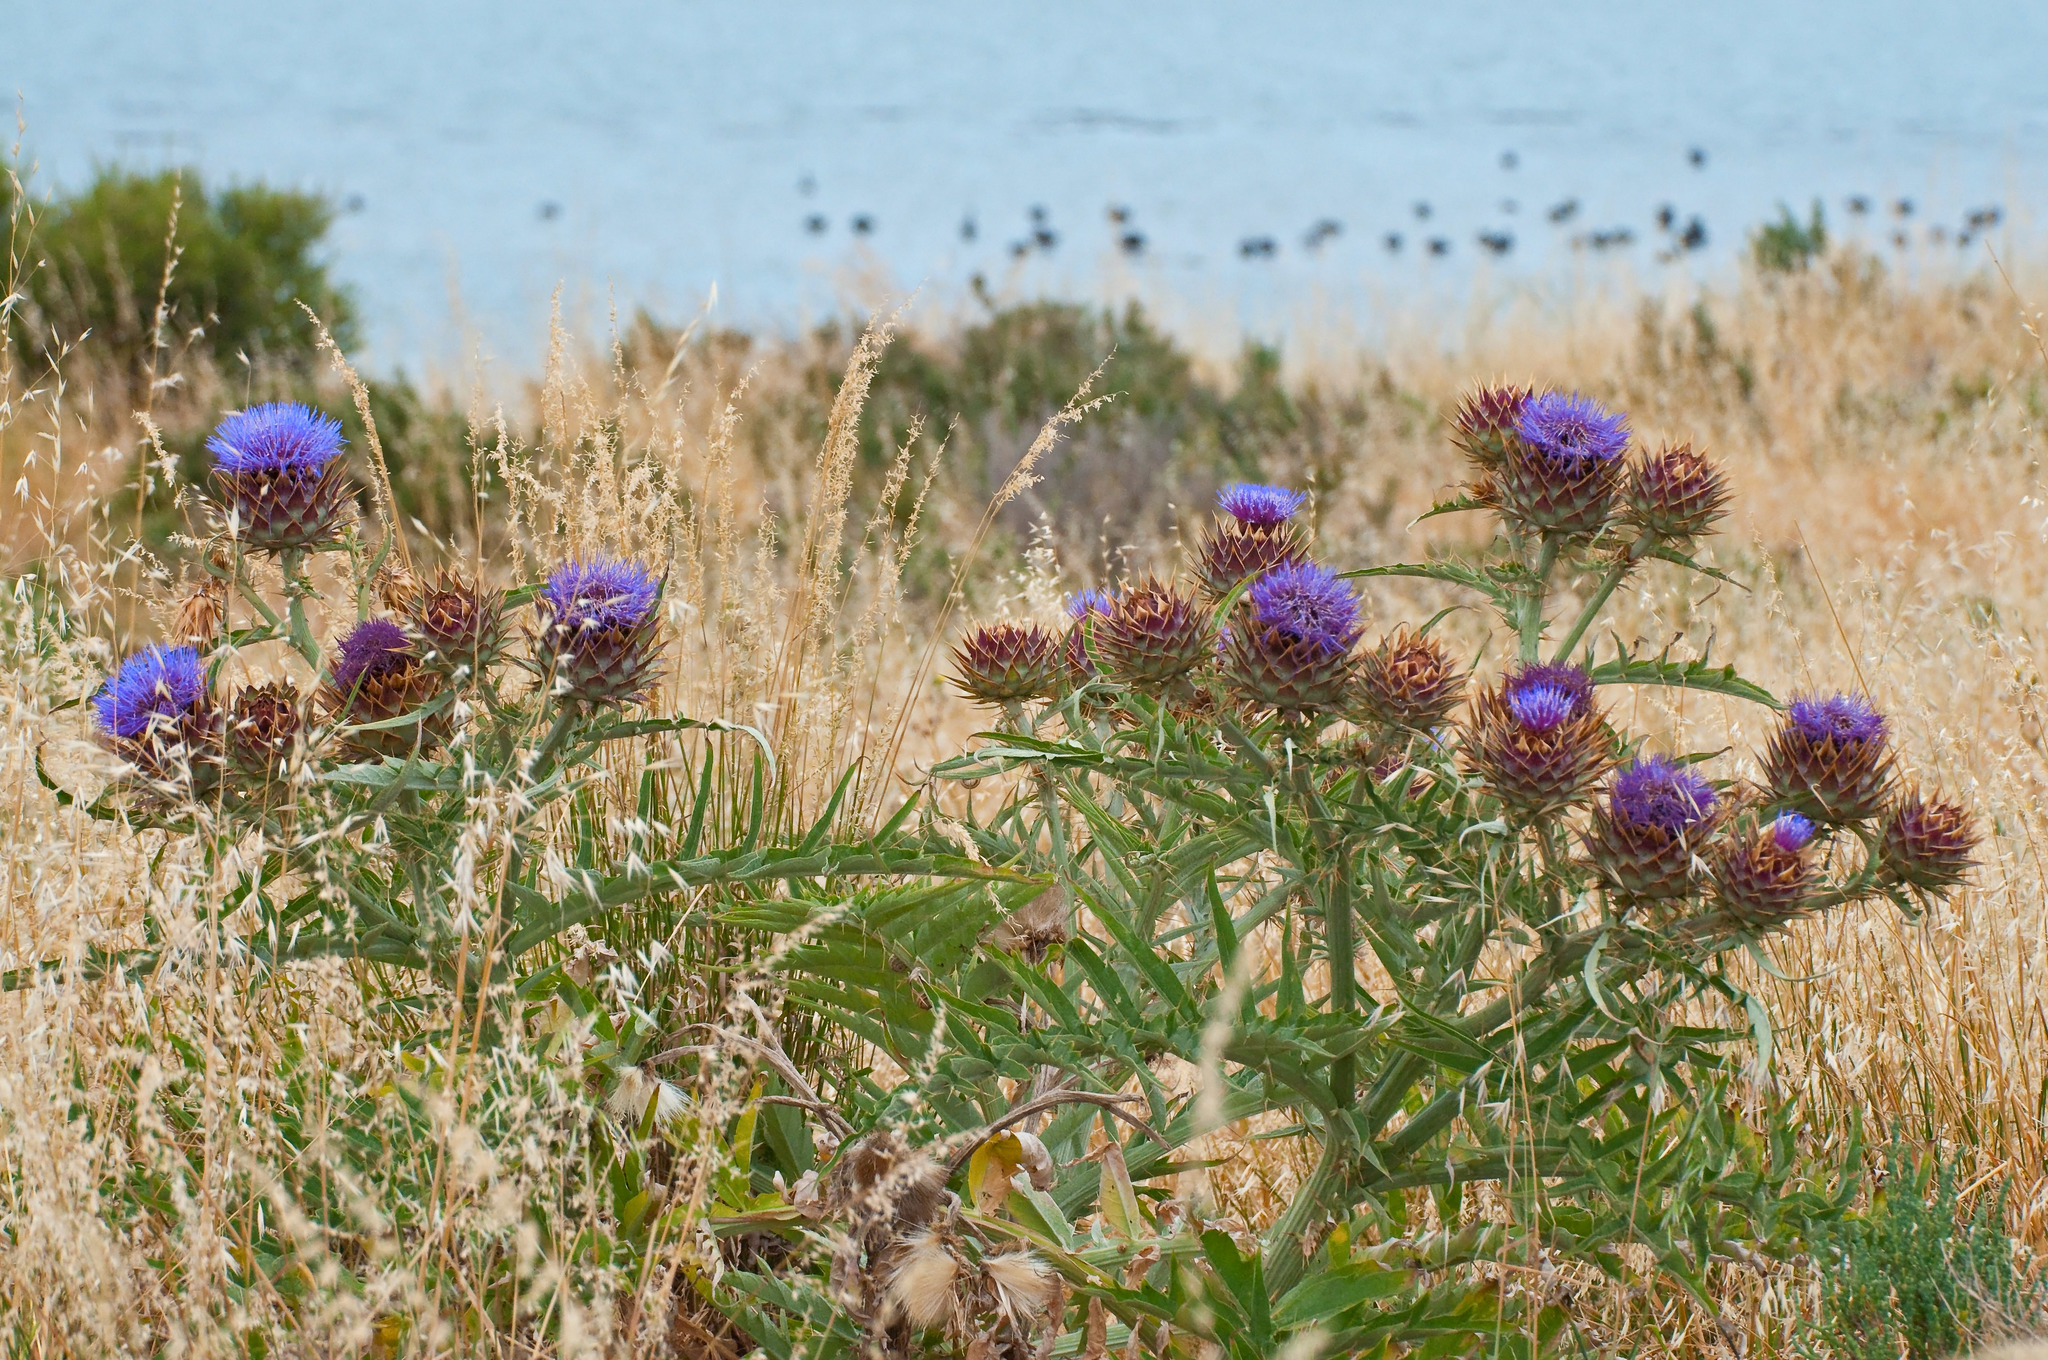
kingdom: Plantae
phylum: Tracheophyta
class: Magnoliopsida
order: Asterales
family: Asteraceae
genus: Cynara
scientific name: Cynara cardunculus
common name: Globe artichoke
